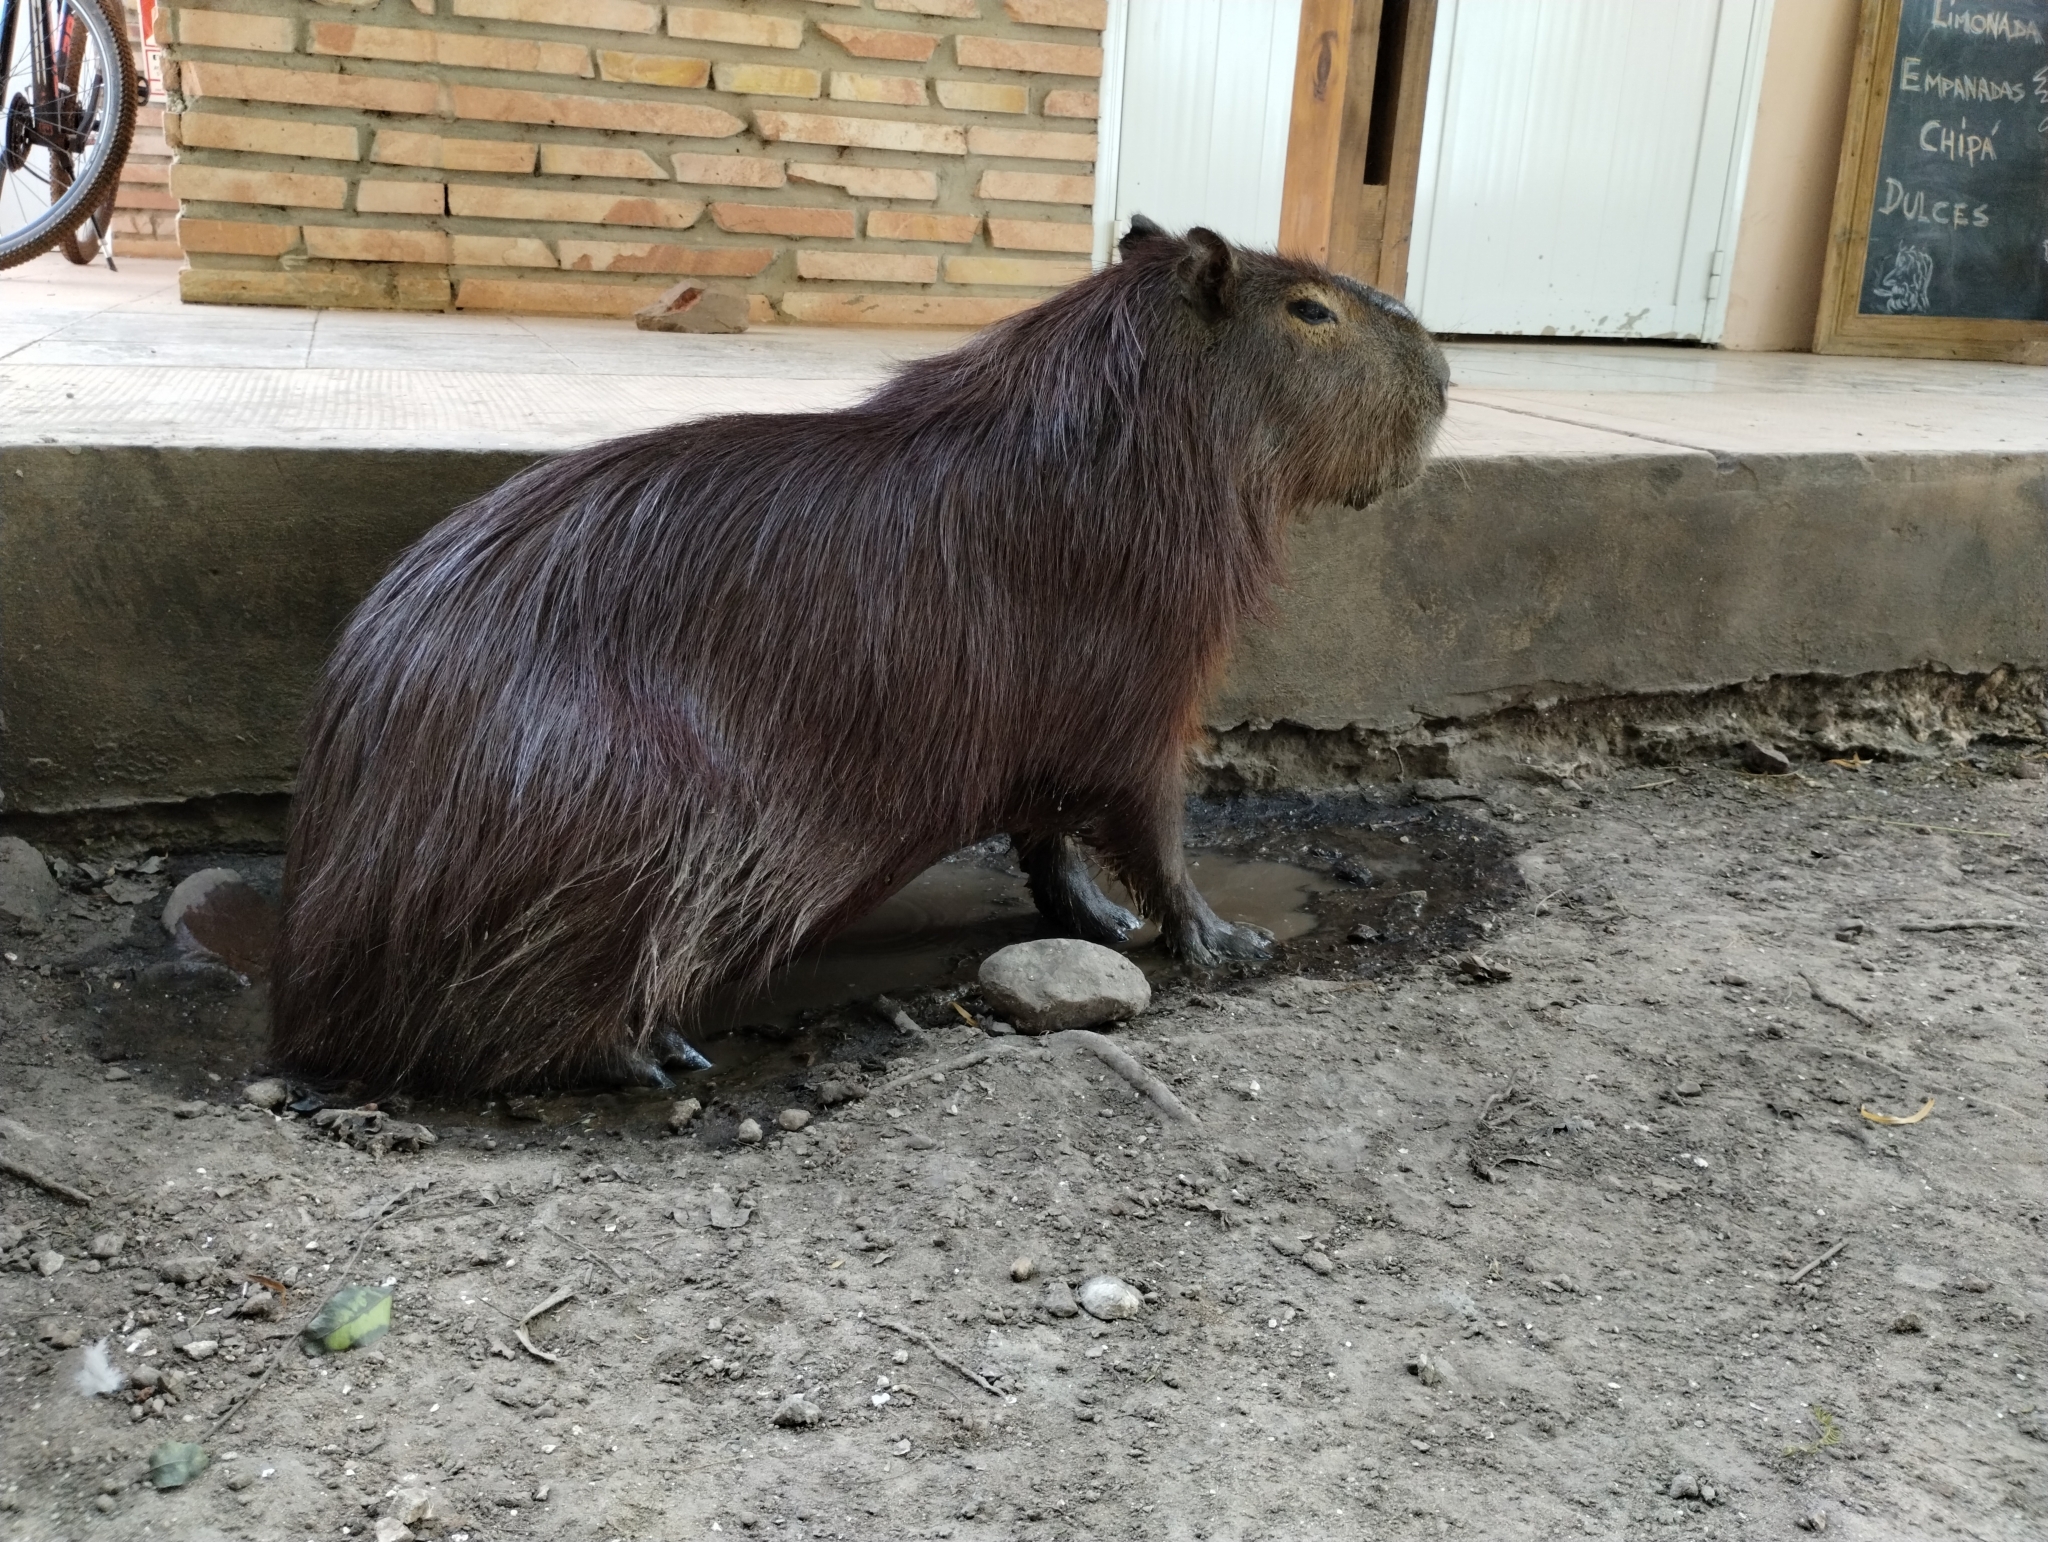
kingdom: Animalia
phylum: Chordata
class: Mammalia
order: Rodentia
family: Caviidae
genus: Hydrochoerus
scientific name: Hydrochoerus hydrochaeris
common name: Capybara
